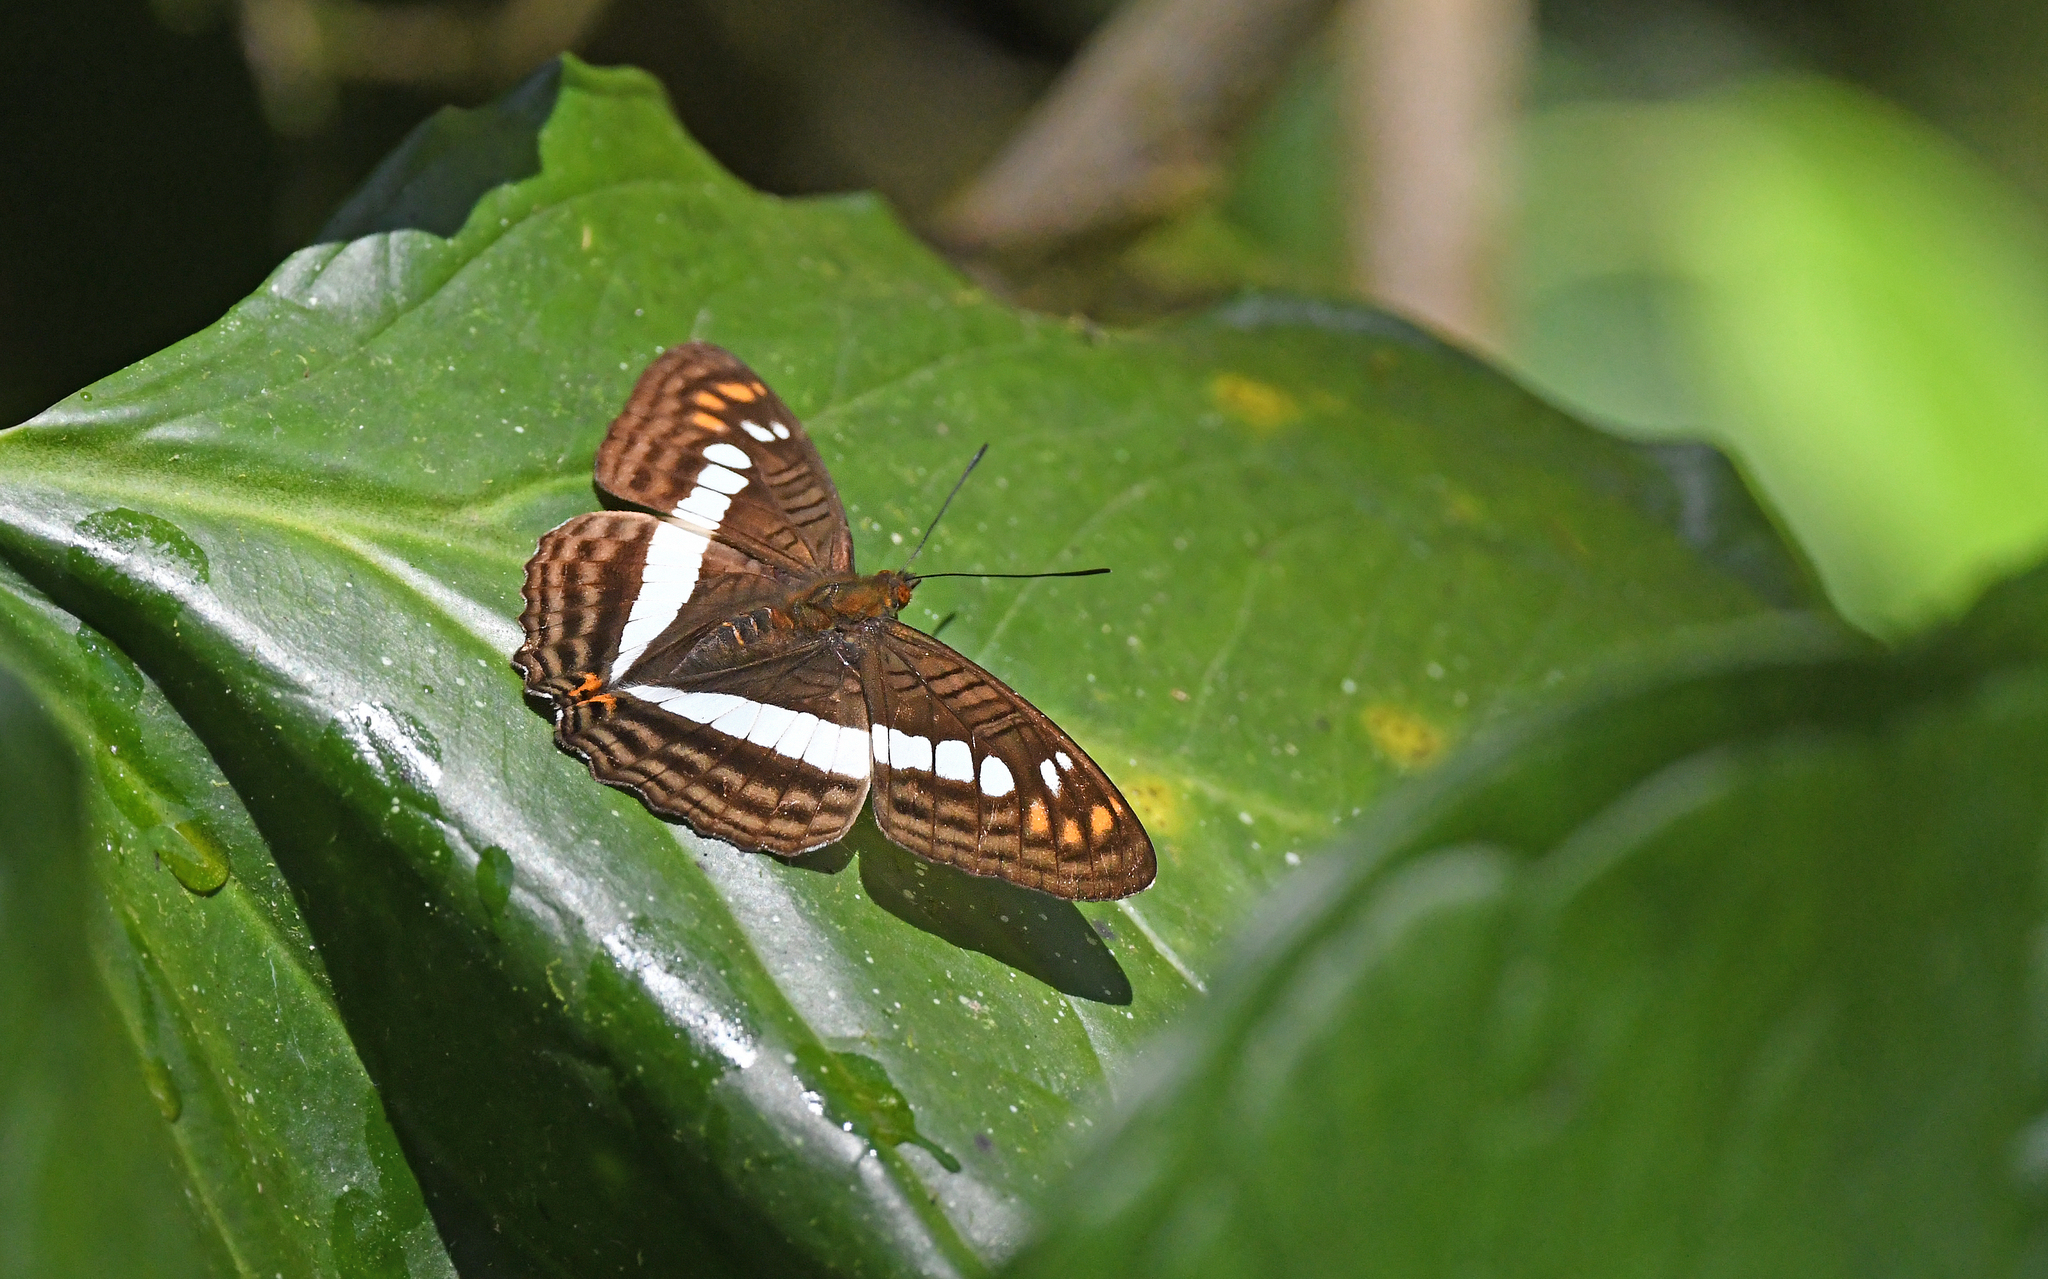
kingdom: Animalia
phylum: Arthropoda
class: Insecta
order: Lepidoptera
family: Nymphalidae
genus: Limenitis
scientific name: Limenitis alala
